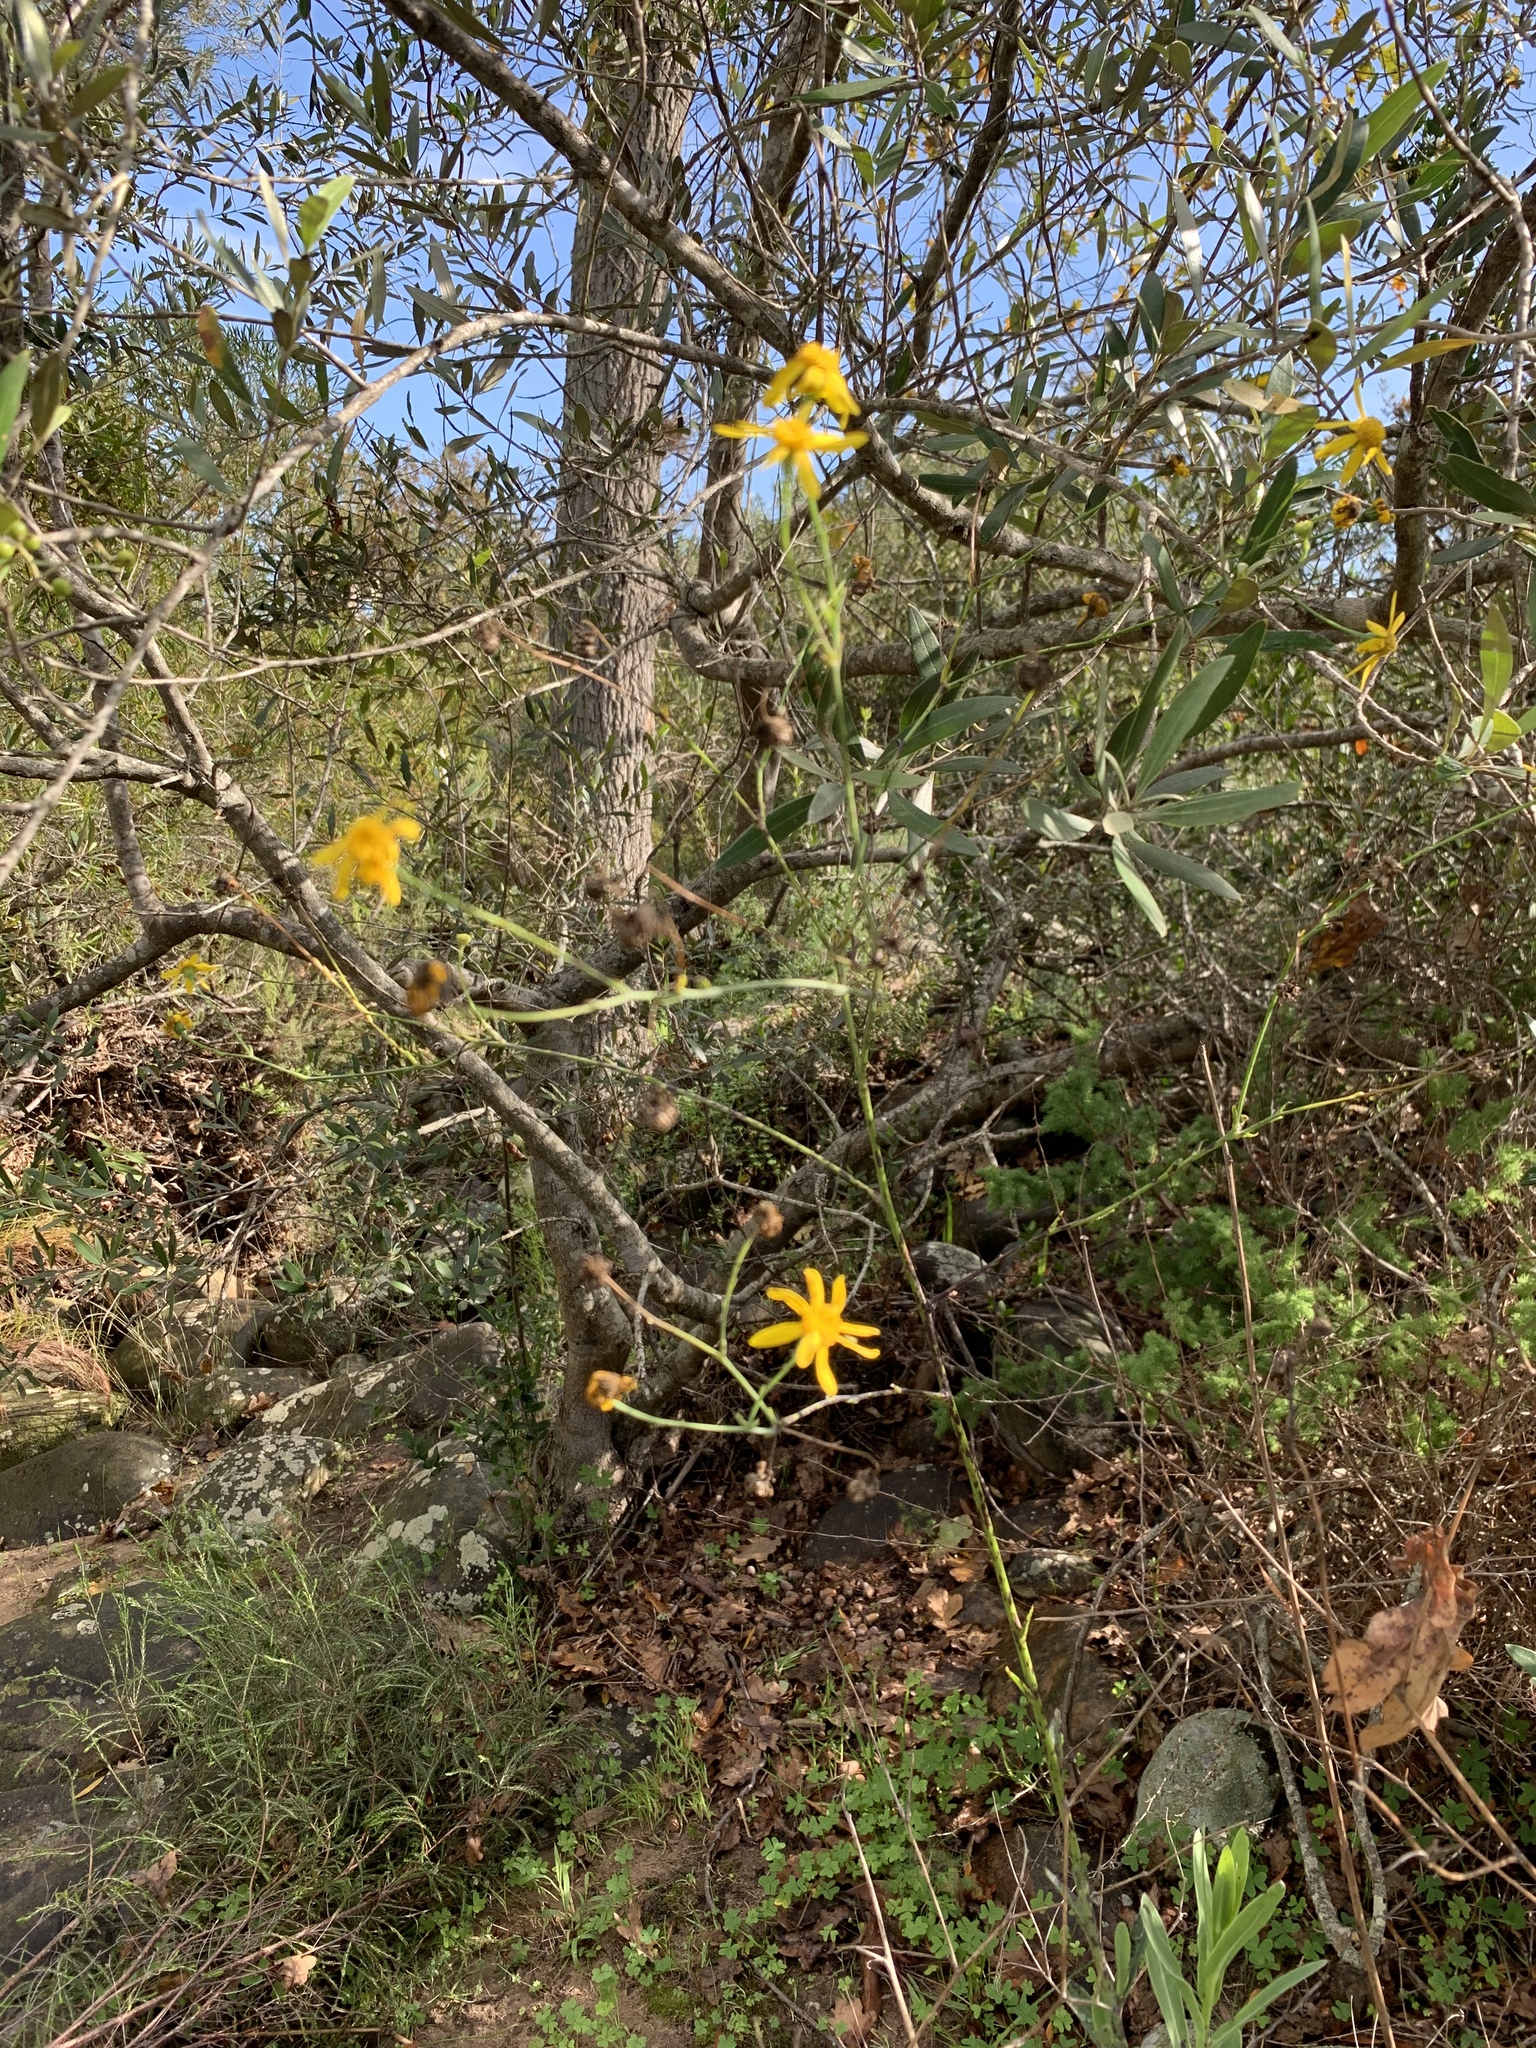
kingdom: Plantae
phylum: Tracheophyta
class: Magnoliopsida
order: Asterales
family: Asteraceae
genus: Othonna
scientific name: Othonna quinquedentata
